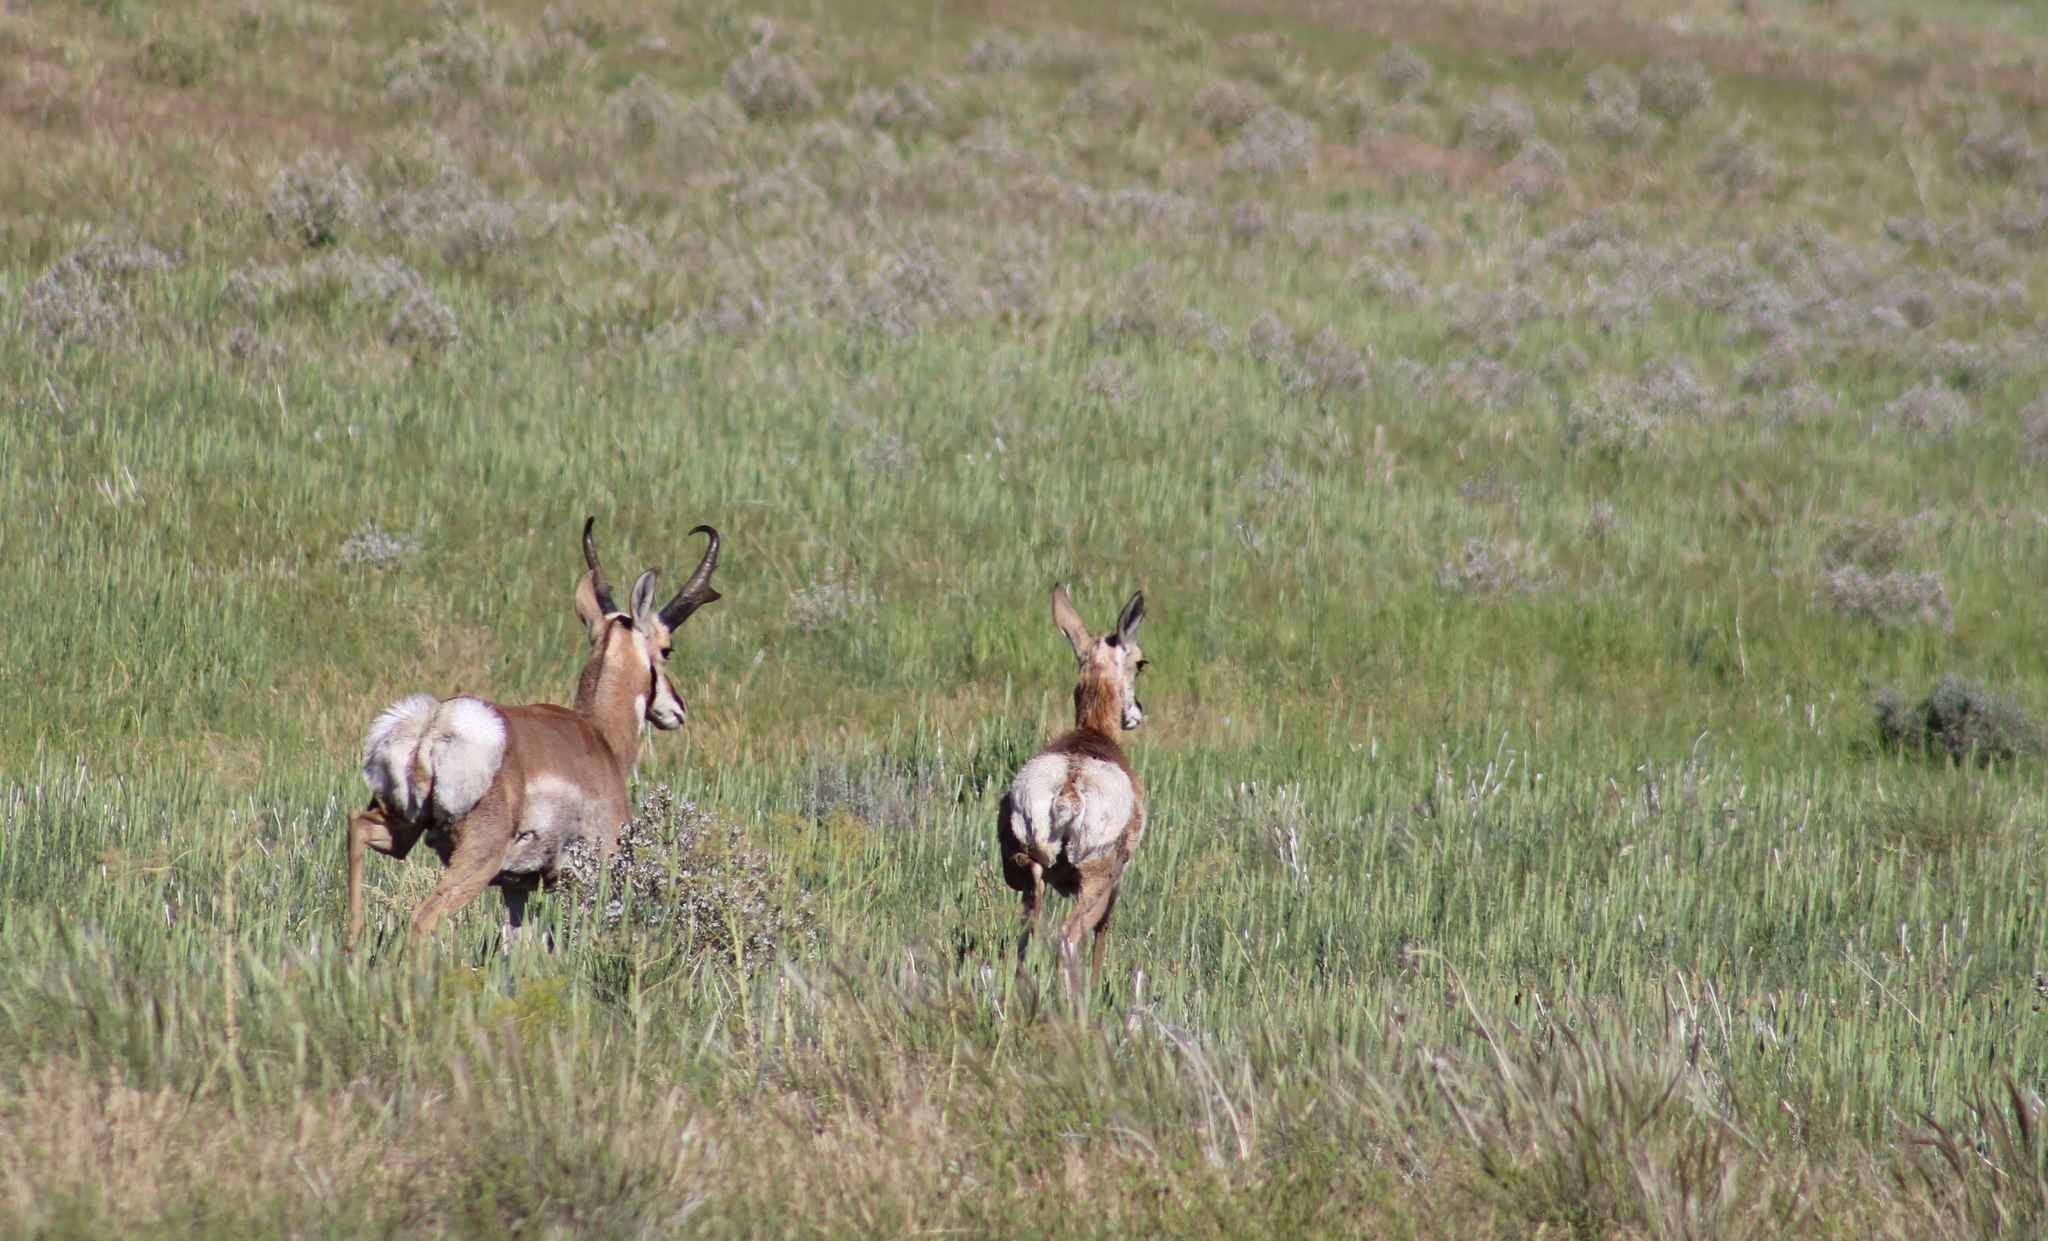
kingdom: Animalia
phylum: Chordata
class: Mammalia
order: Artiodactyla
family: Antilocapridae
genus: Antilocapra
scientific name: Antilocapra americana
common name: Pronghorn
